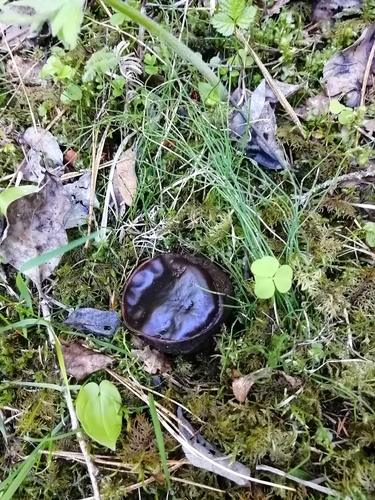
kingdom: Fungi
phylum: Ascomycota
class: Pezizomycetes
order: Pezizales
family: Sarcosomataceae
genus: Sarcosoma
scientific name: Sarcosoma globosum
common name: Charred-pancake cup
